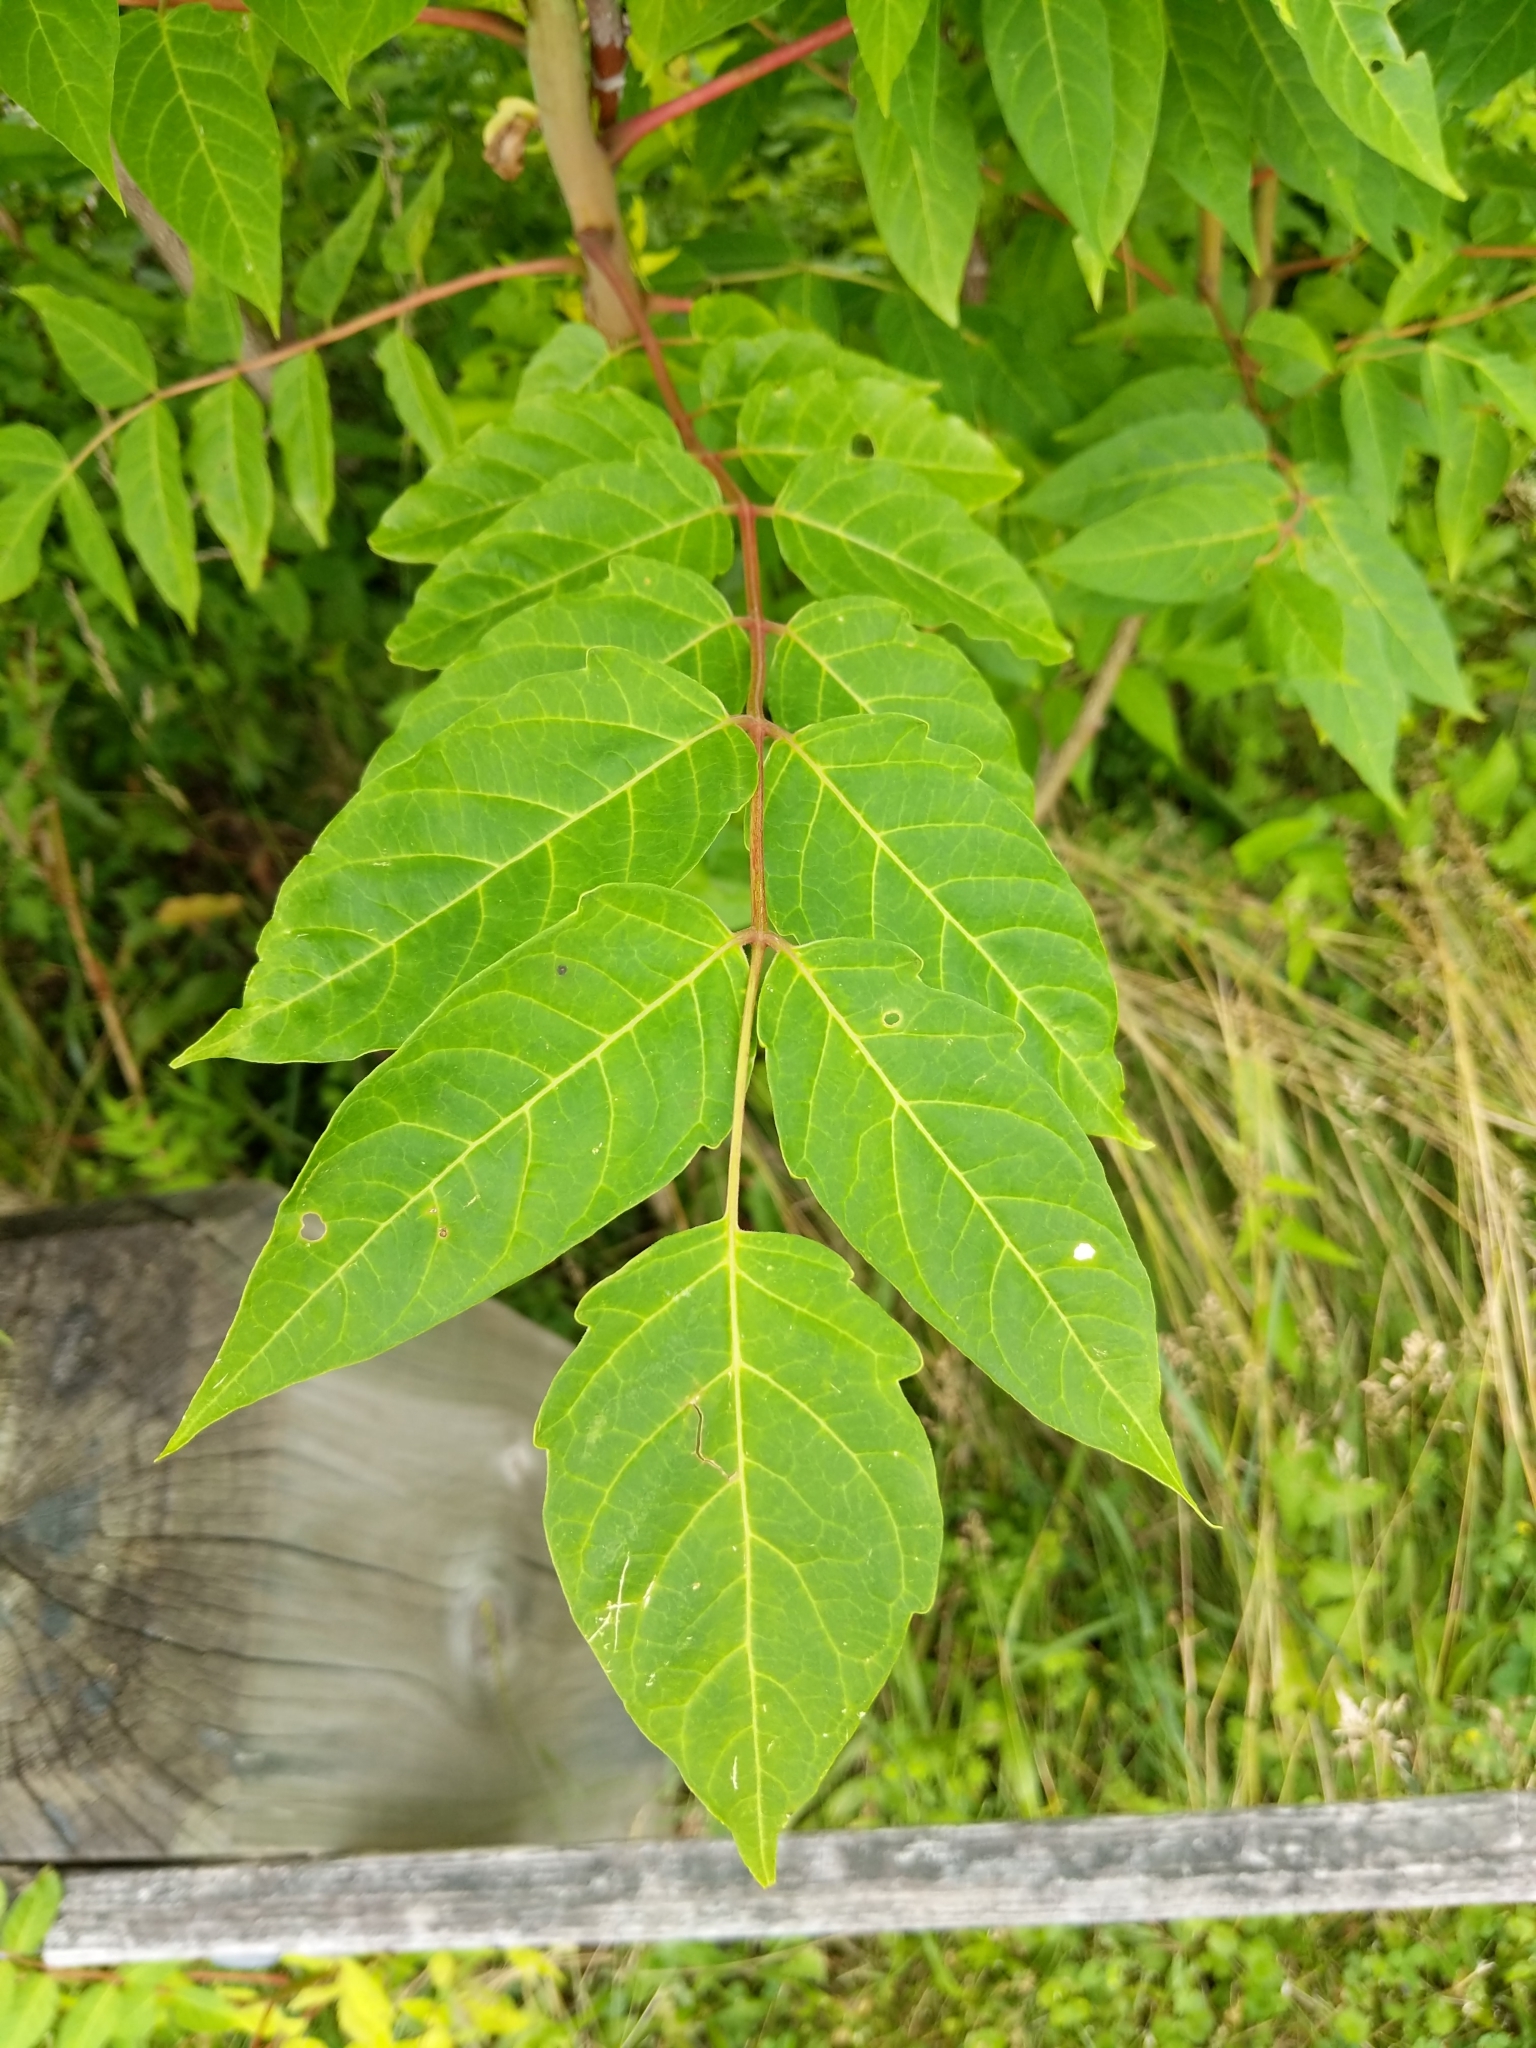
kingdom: Plantae
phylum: Tracheophyta
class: Magnoliopsida
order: Sapindales
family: Simaroubaceae
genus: Ailanthus
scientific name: Ailanthus altissima
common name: Tree-of-heaven
